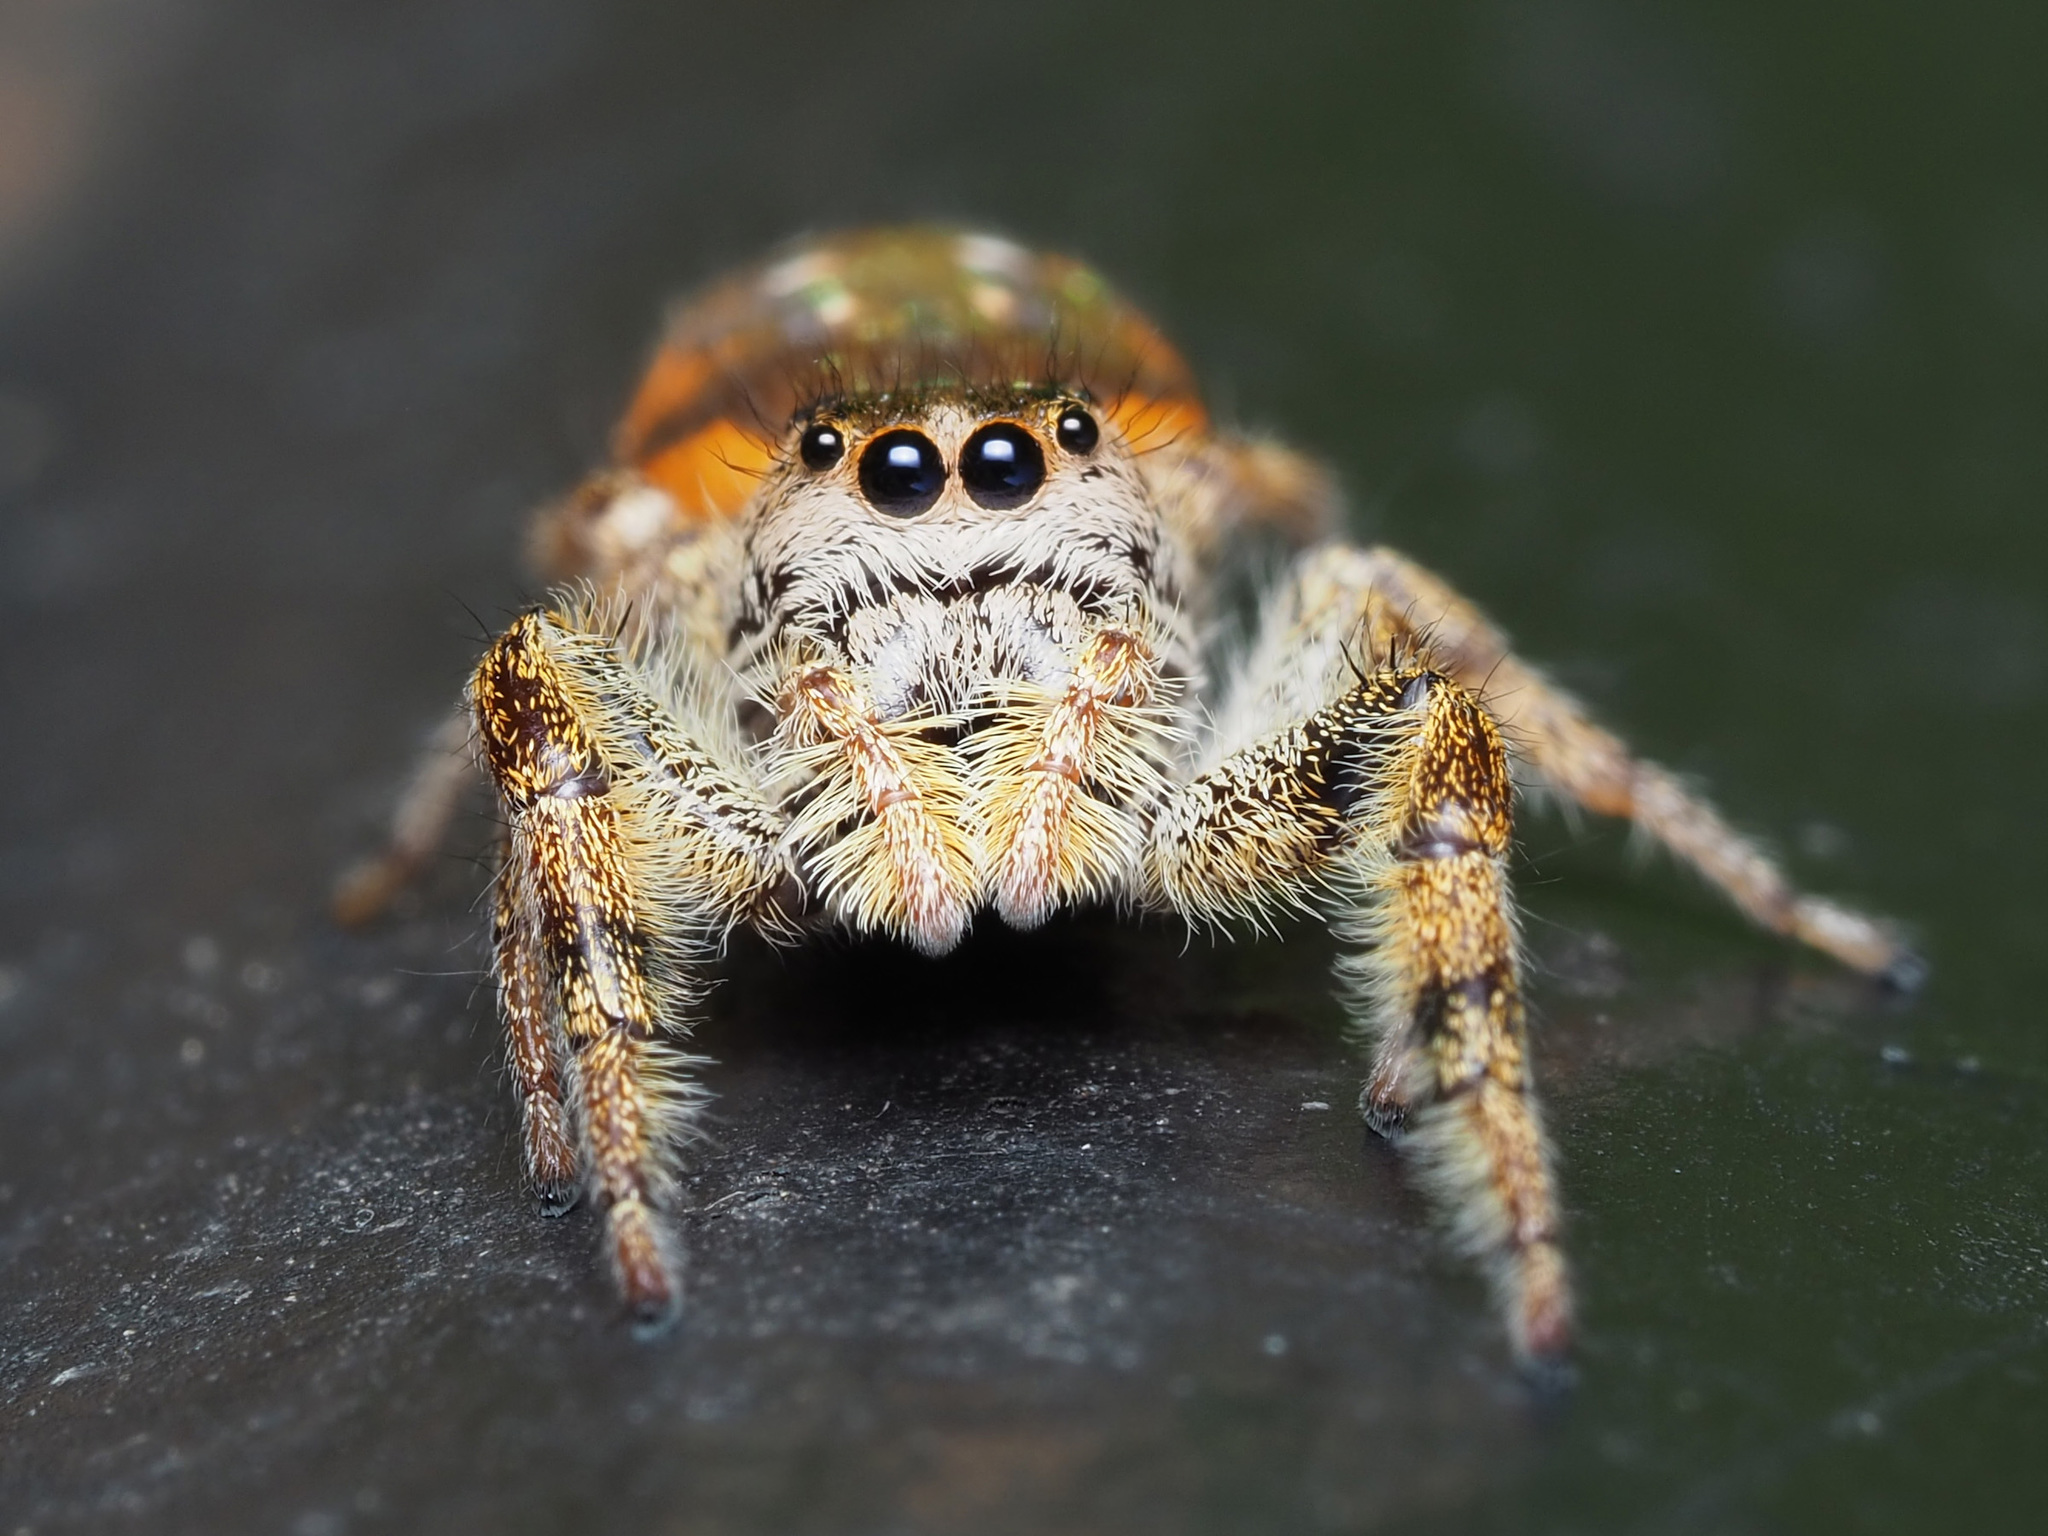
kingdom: Animalia
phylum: Arthropoda
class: Arachnida
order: Araneae
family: Salticidae
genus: Paraphidippus
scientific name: Paraphidippus aurantius
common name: Jumping spiders
